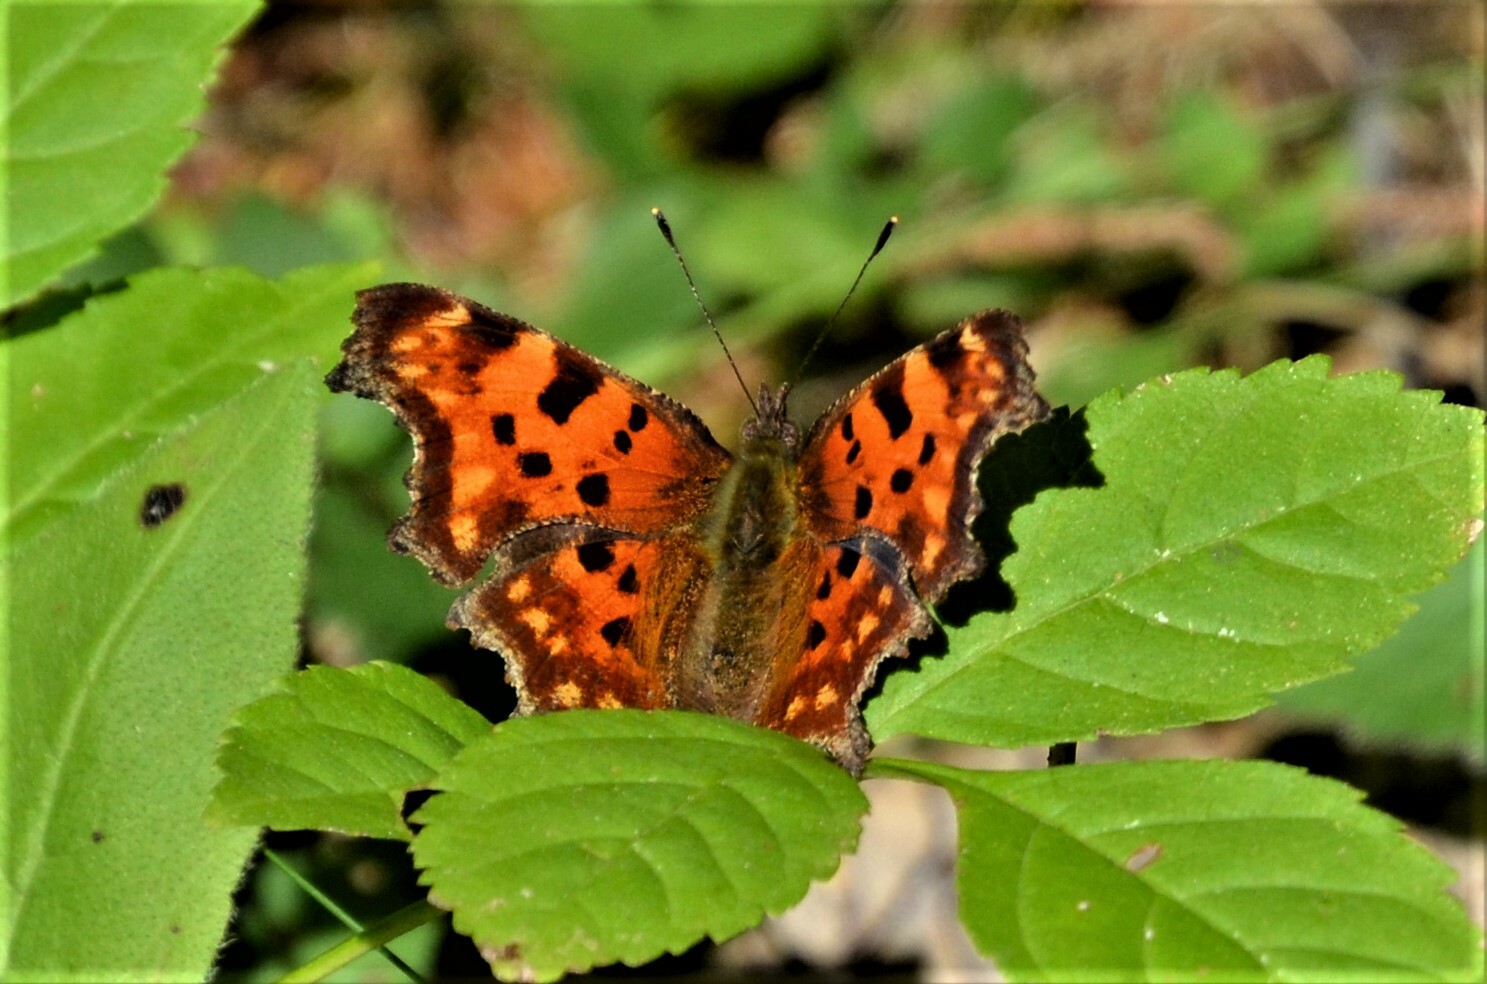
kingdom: Animalia
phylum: Arthropoda
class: Insecta
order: Lepidoptera
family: Nymphalidae
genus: Polygonia
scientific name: Polygonia c-album
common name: Comma
